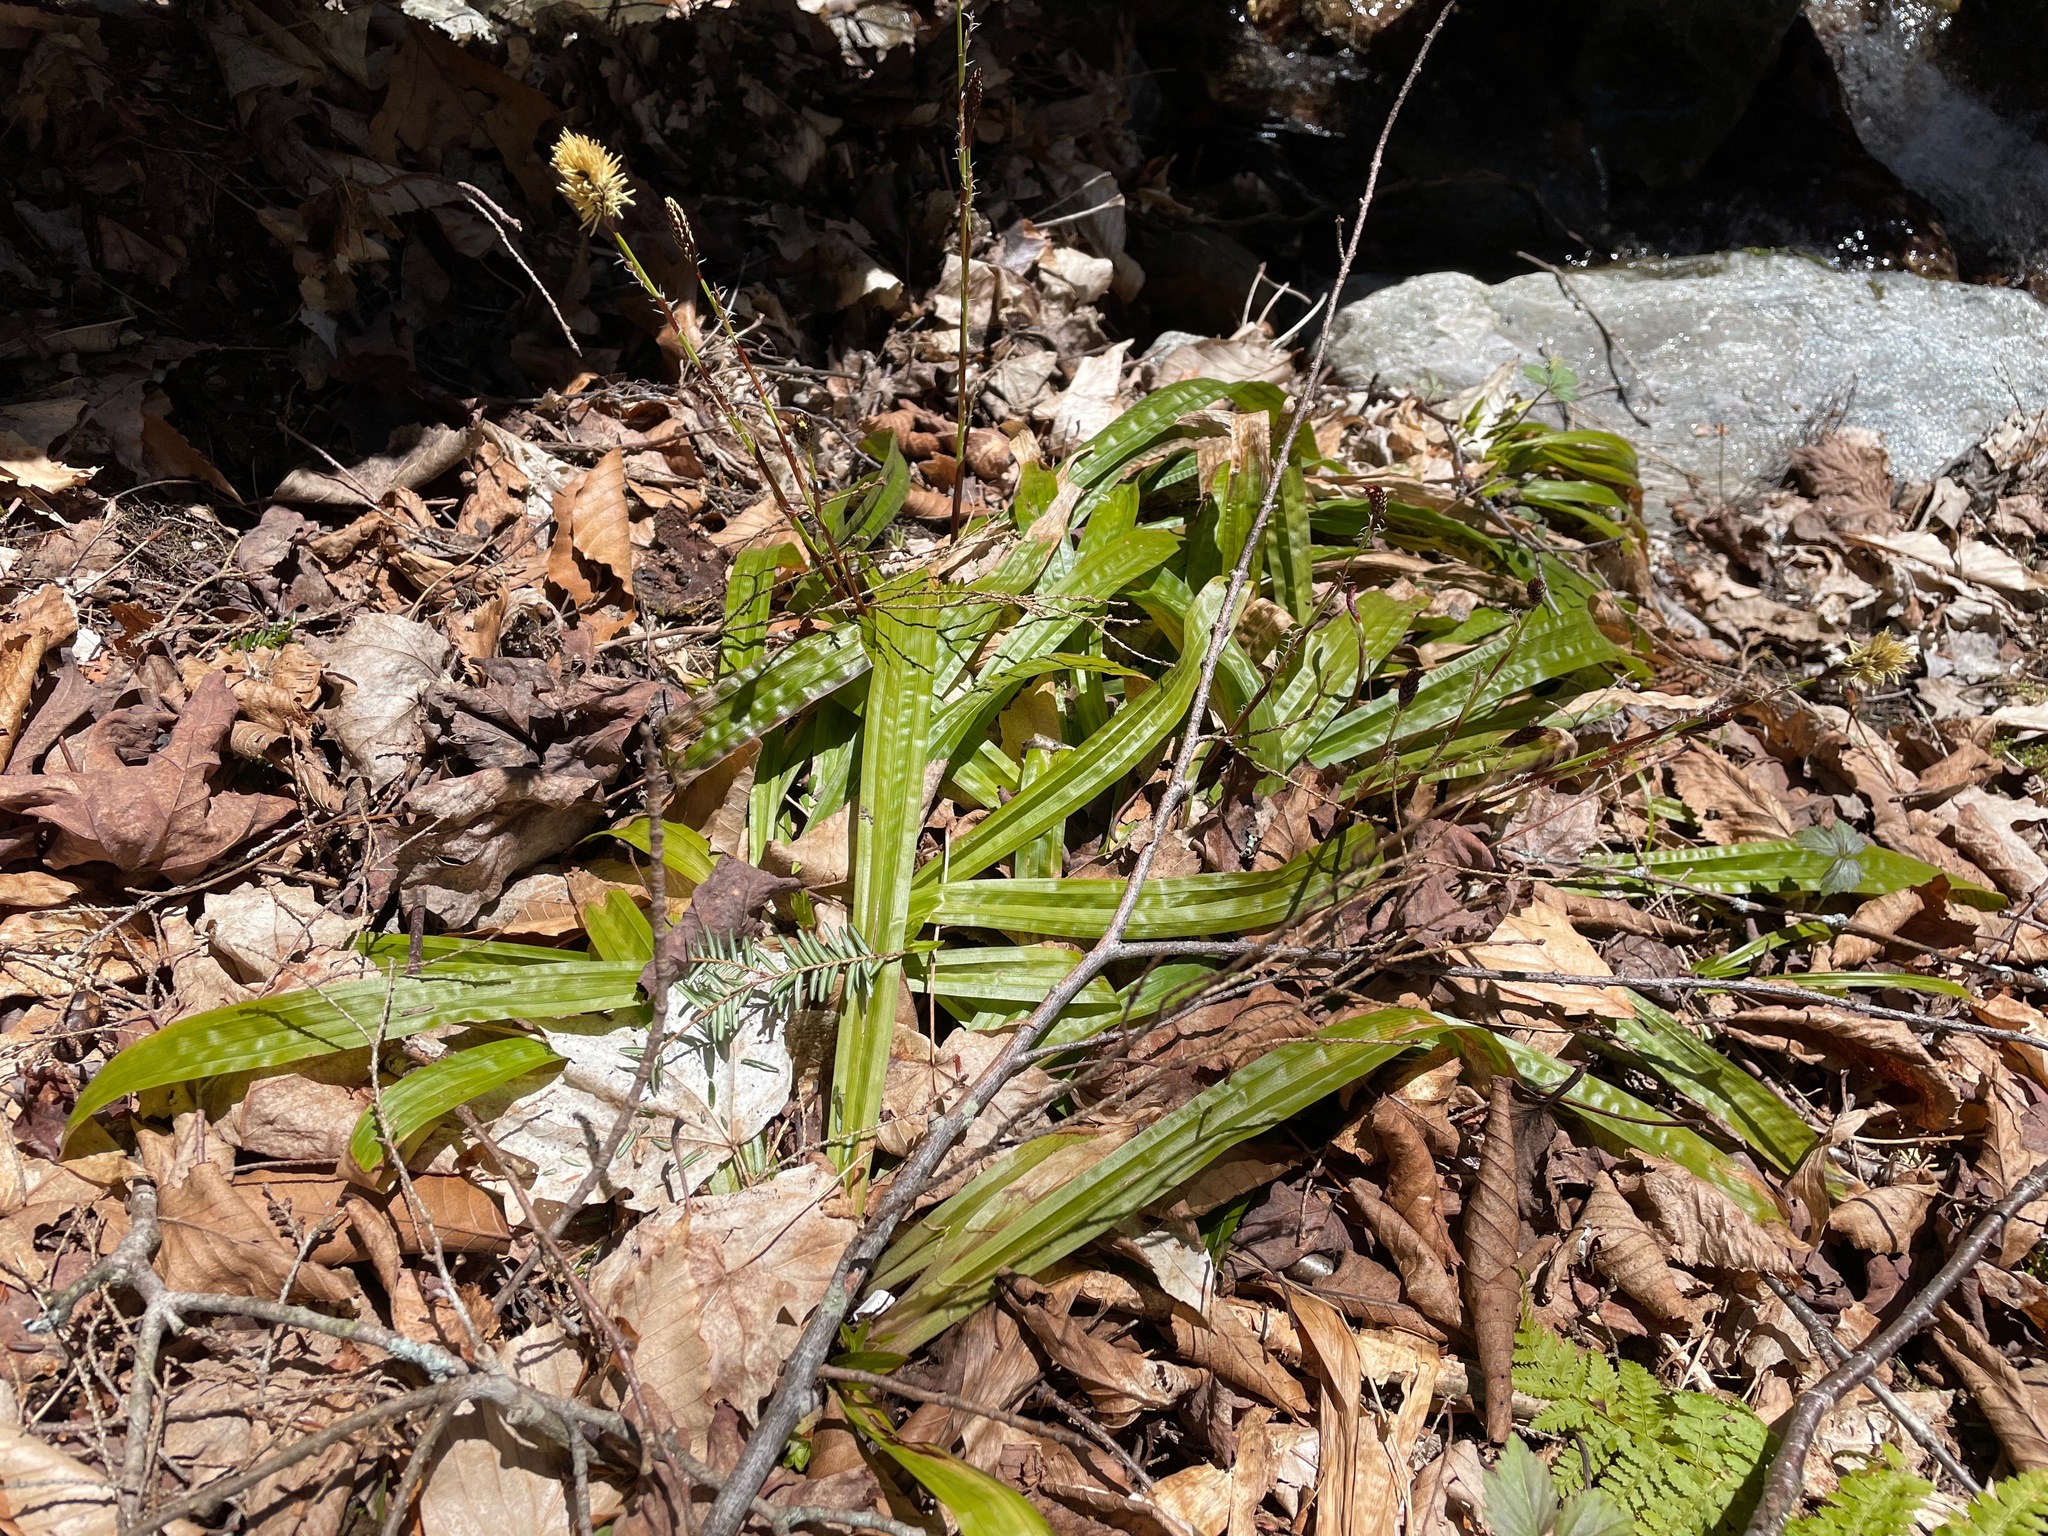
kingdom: Plantae
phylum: Tracheophyta
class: Liliopsida
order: Poales
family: Cyperaceae
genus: Carex
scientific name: Carex plantaginea
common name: Plantain-leaved sedge
